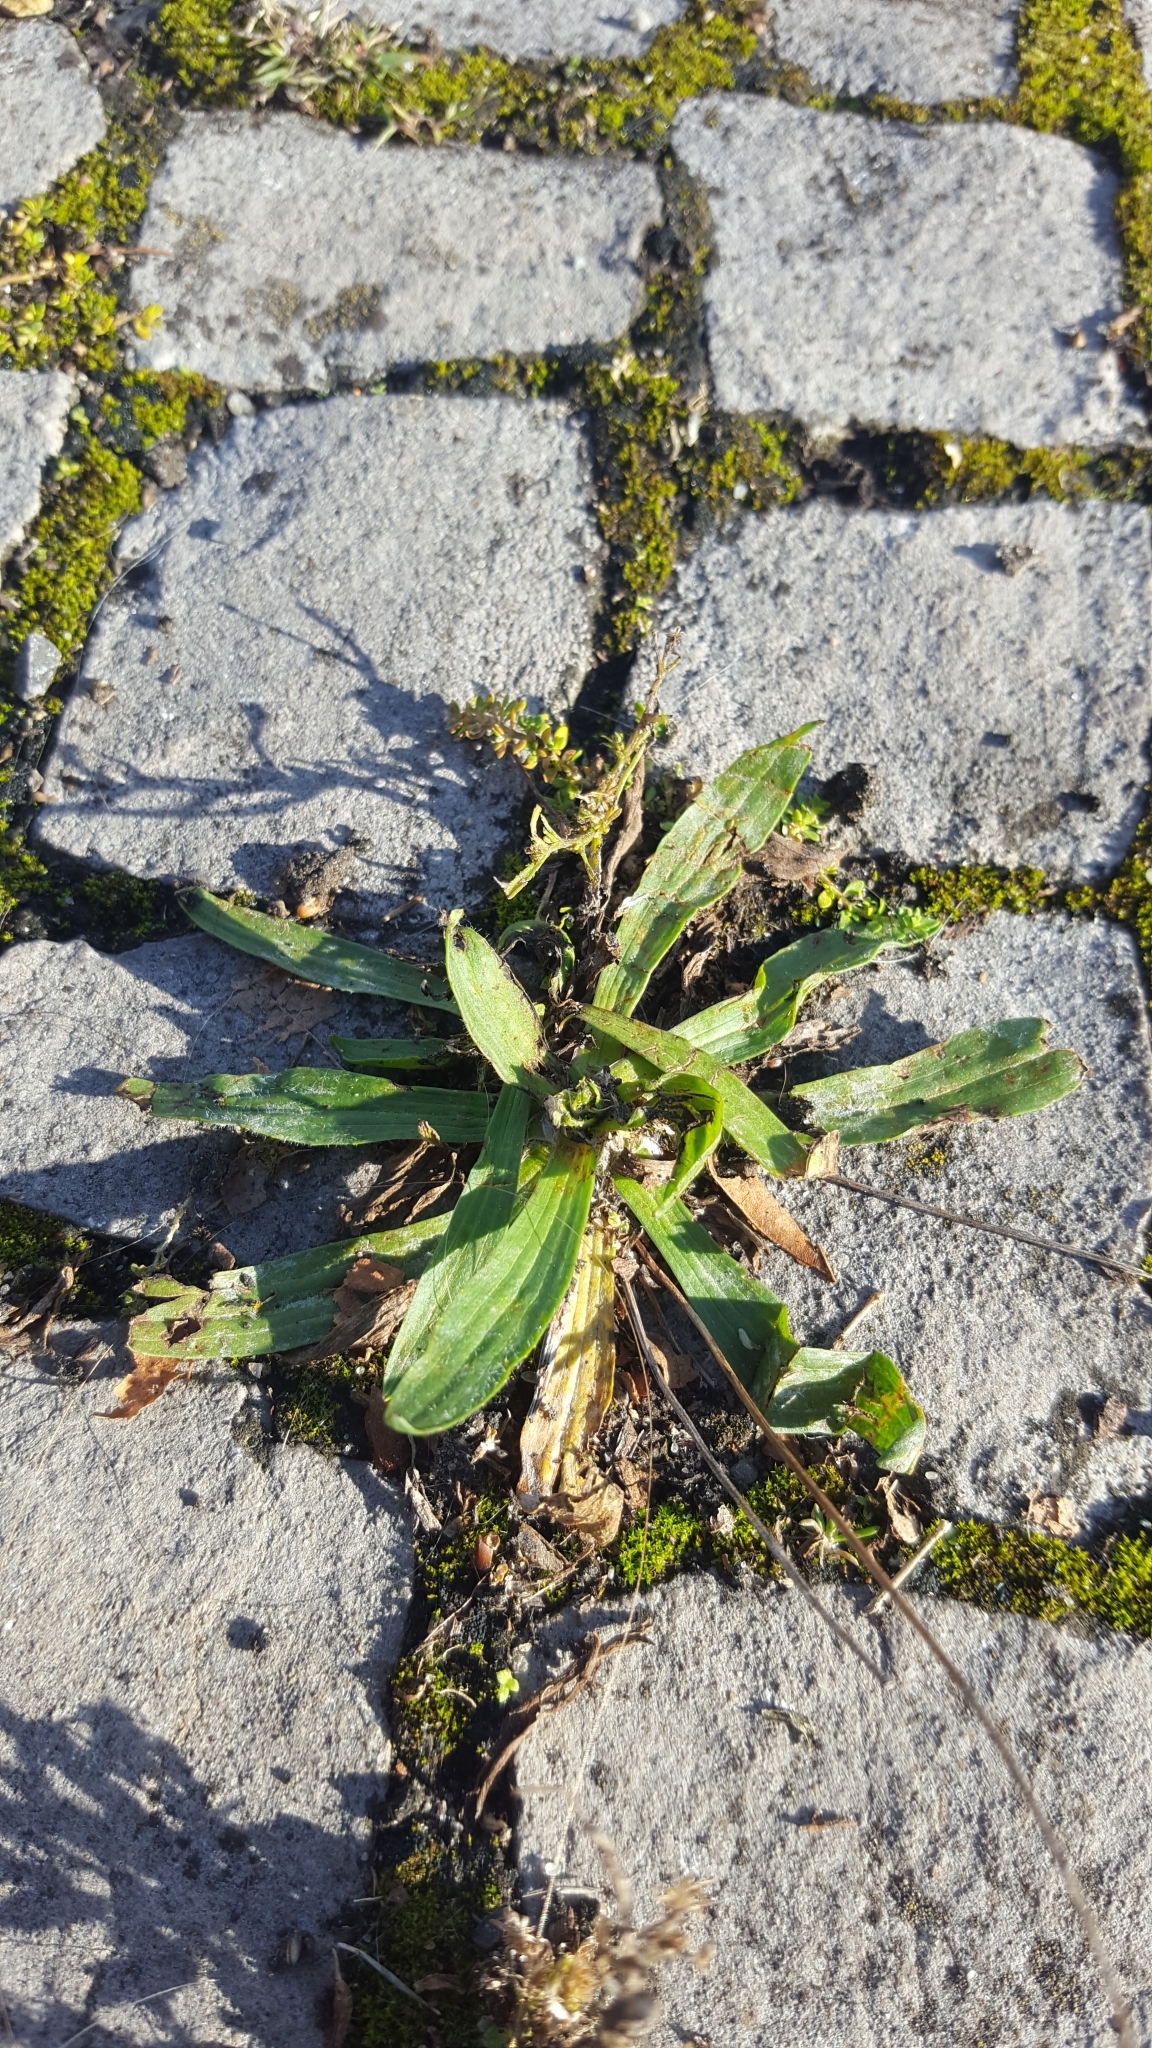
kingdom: Plantae
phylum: Tracheophyta
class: Magnoliopsida
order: Lamiales
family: Plantaginaceae
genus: Plantago
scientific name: Plantago lanceolata
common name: Ribwort plantain
